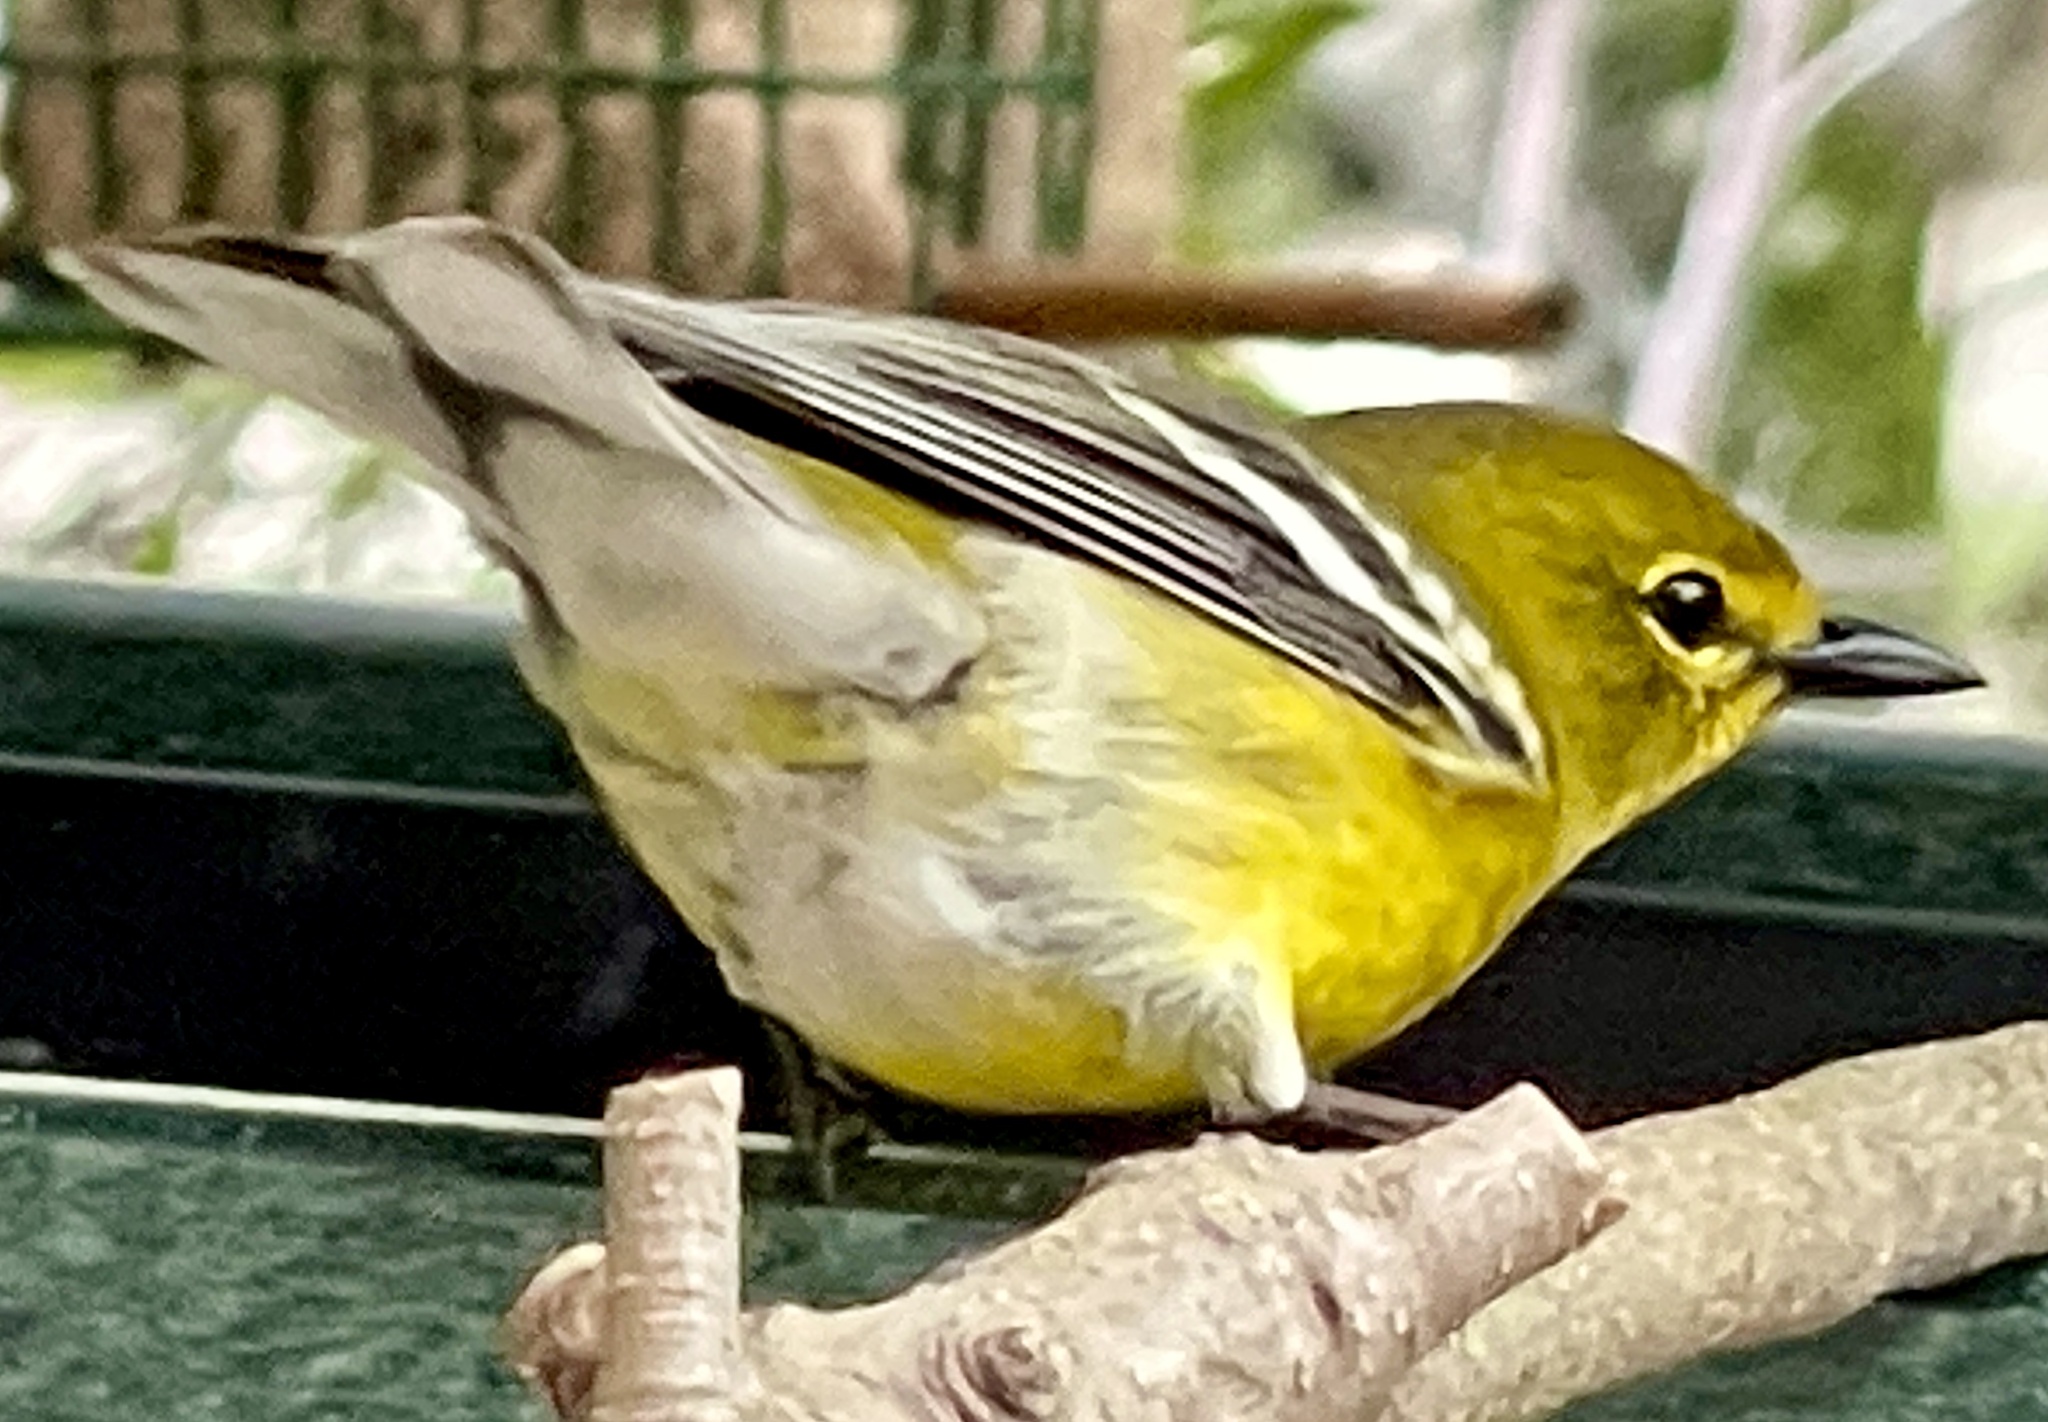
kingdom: Animalia
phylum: Chordata
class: Aves
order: Passeriformes
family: Parulidae
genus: Setophaga
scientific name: Setophaga pinus
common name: Pine warbler
